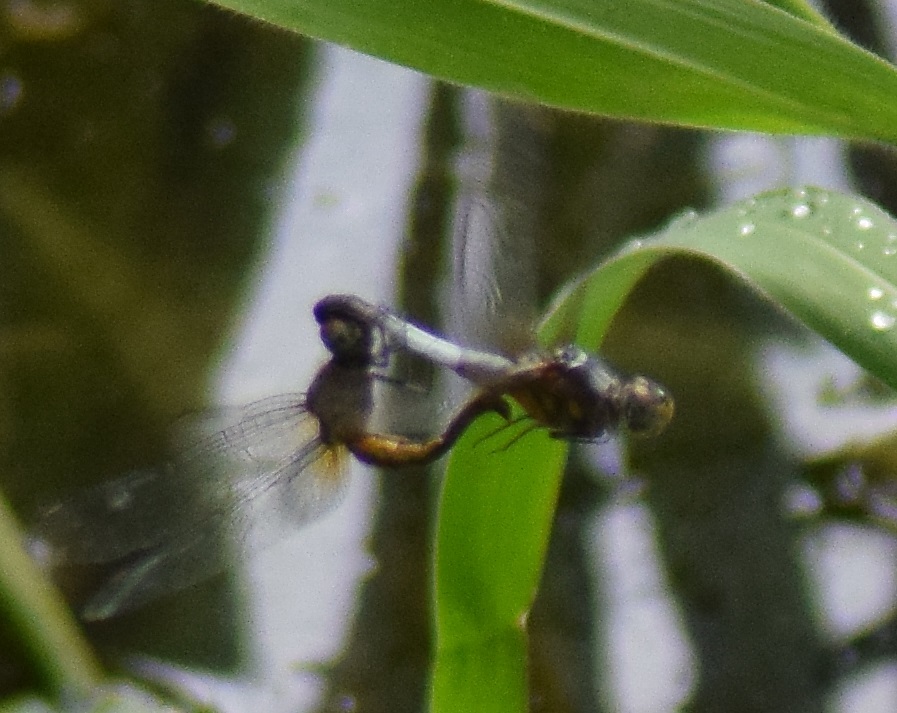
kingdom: Animalia
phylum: Arthropoda
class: Insecta
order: Odonata
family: Libellulidae
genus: Brachydiplax
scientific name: Brachydiplax chalybea
